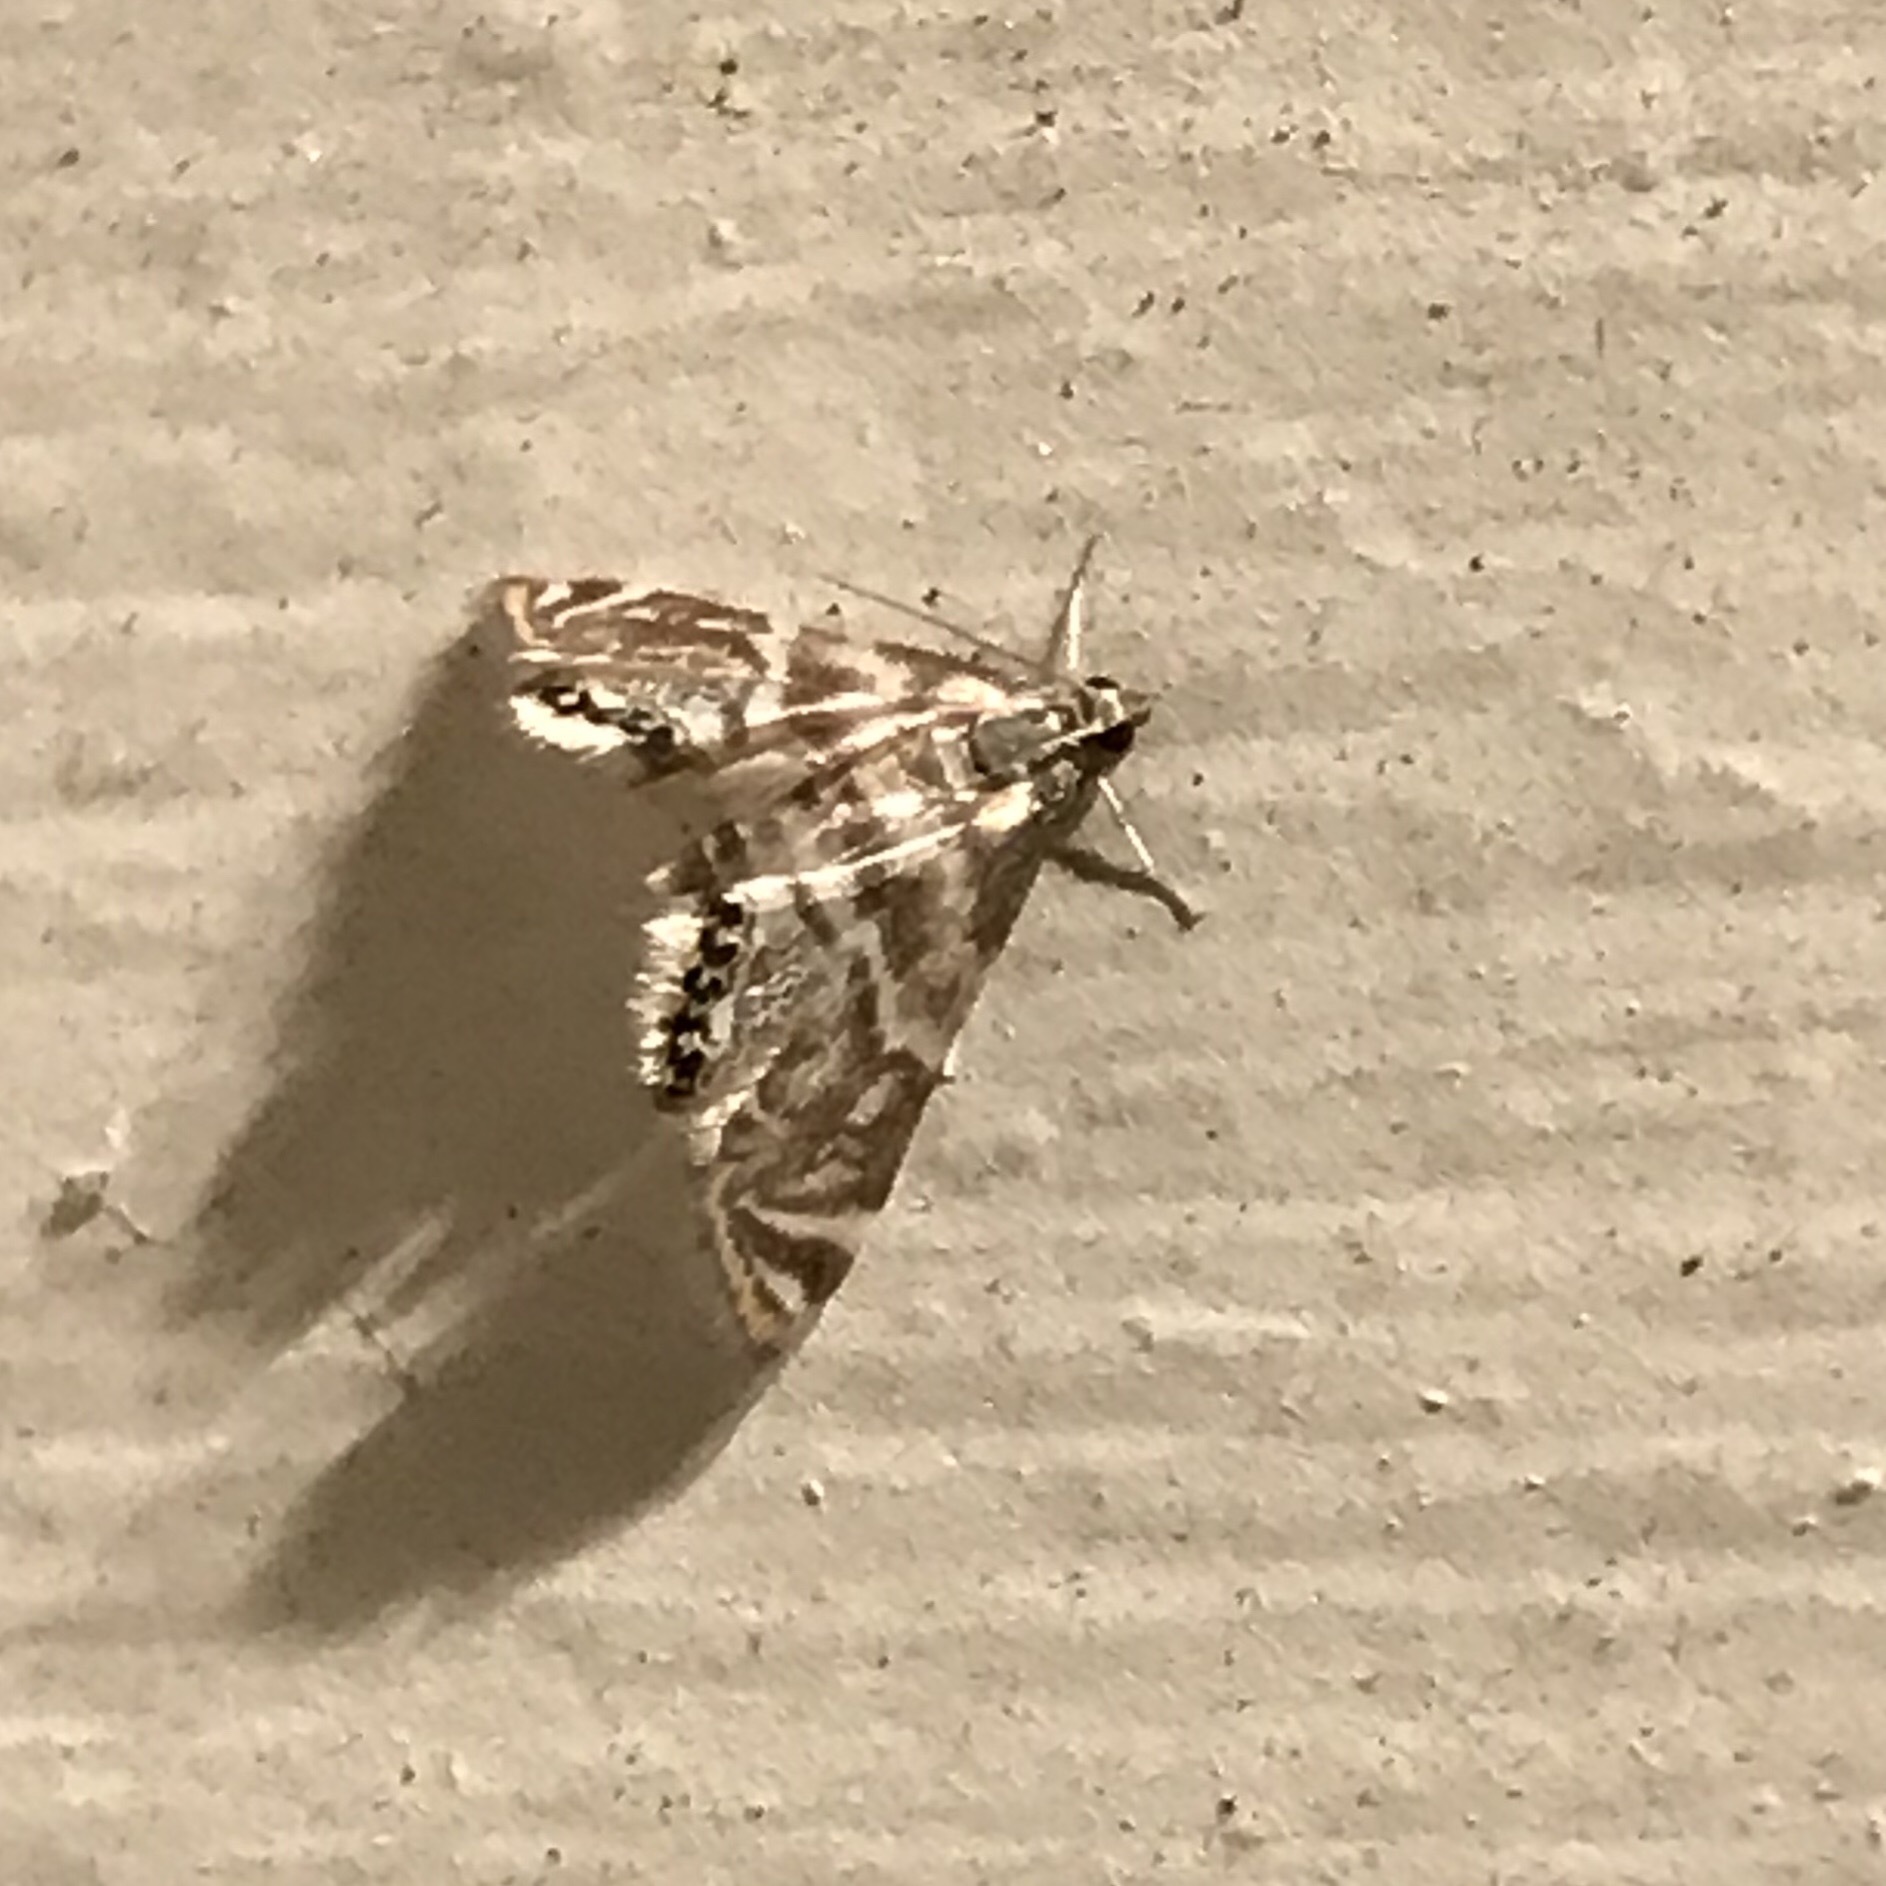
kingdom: Animalia
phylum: Arthropoda
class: Insecta
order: Lepidoptera
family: Crambidae
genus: Petrophila
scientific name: Petrophila canadensis
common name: Canadian petrophila
